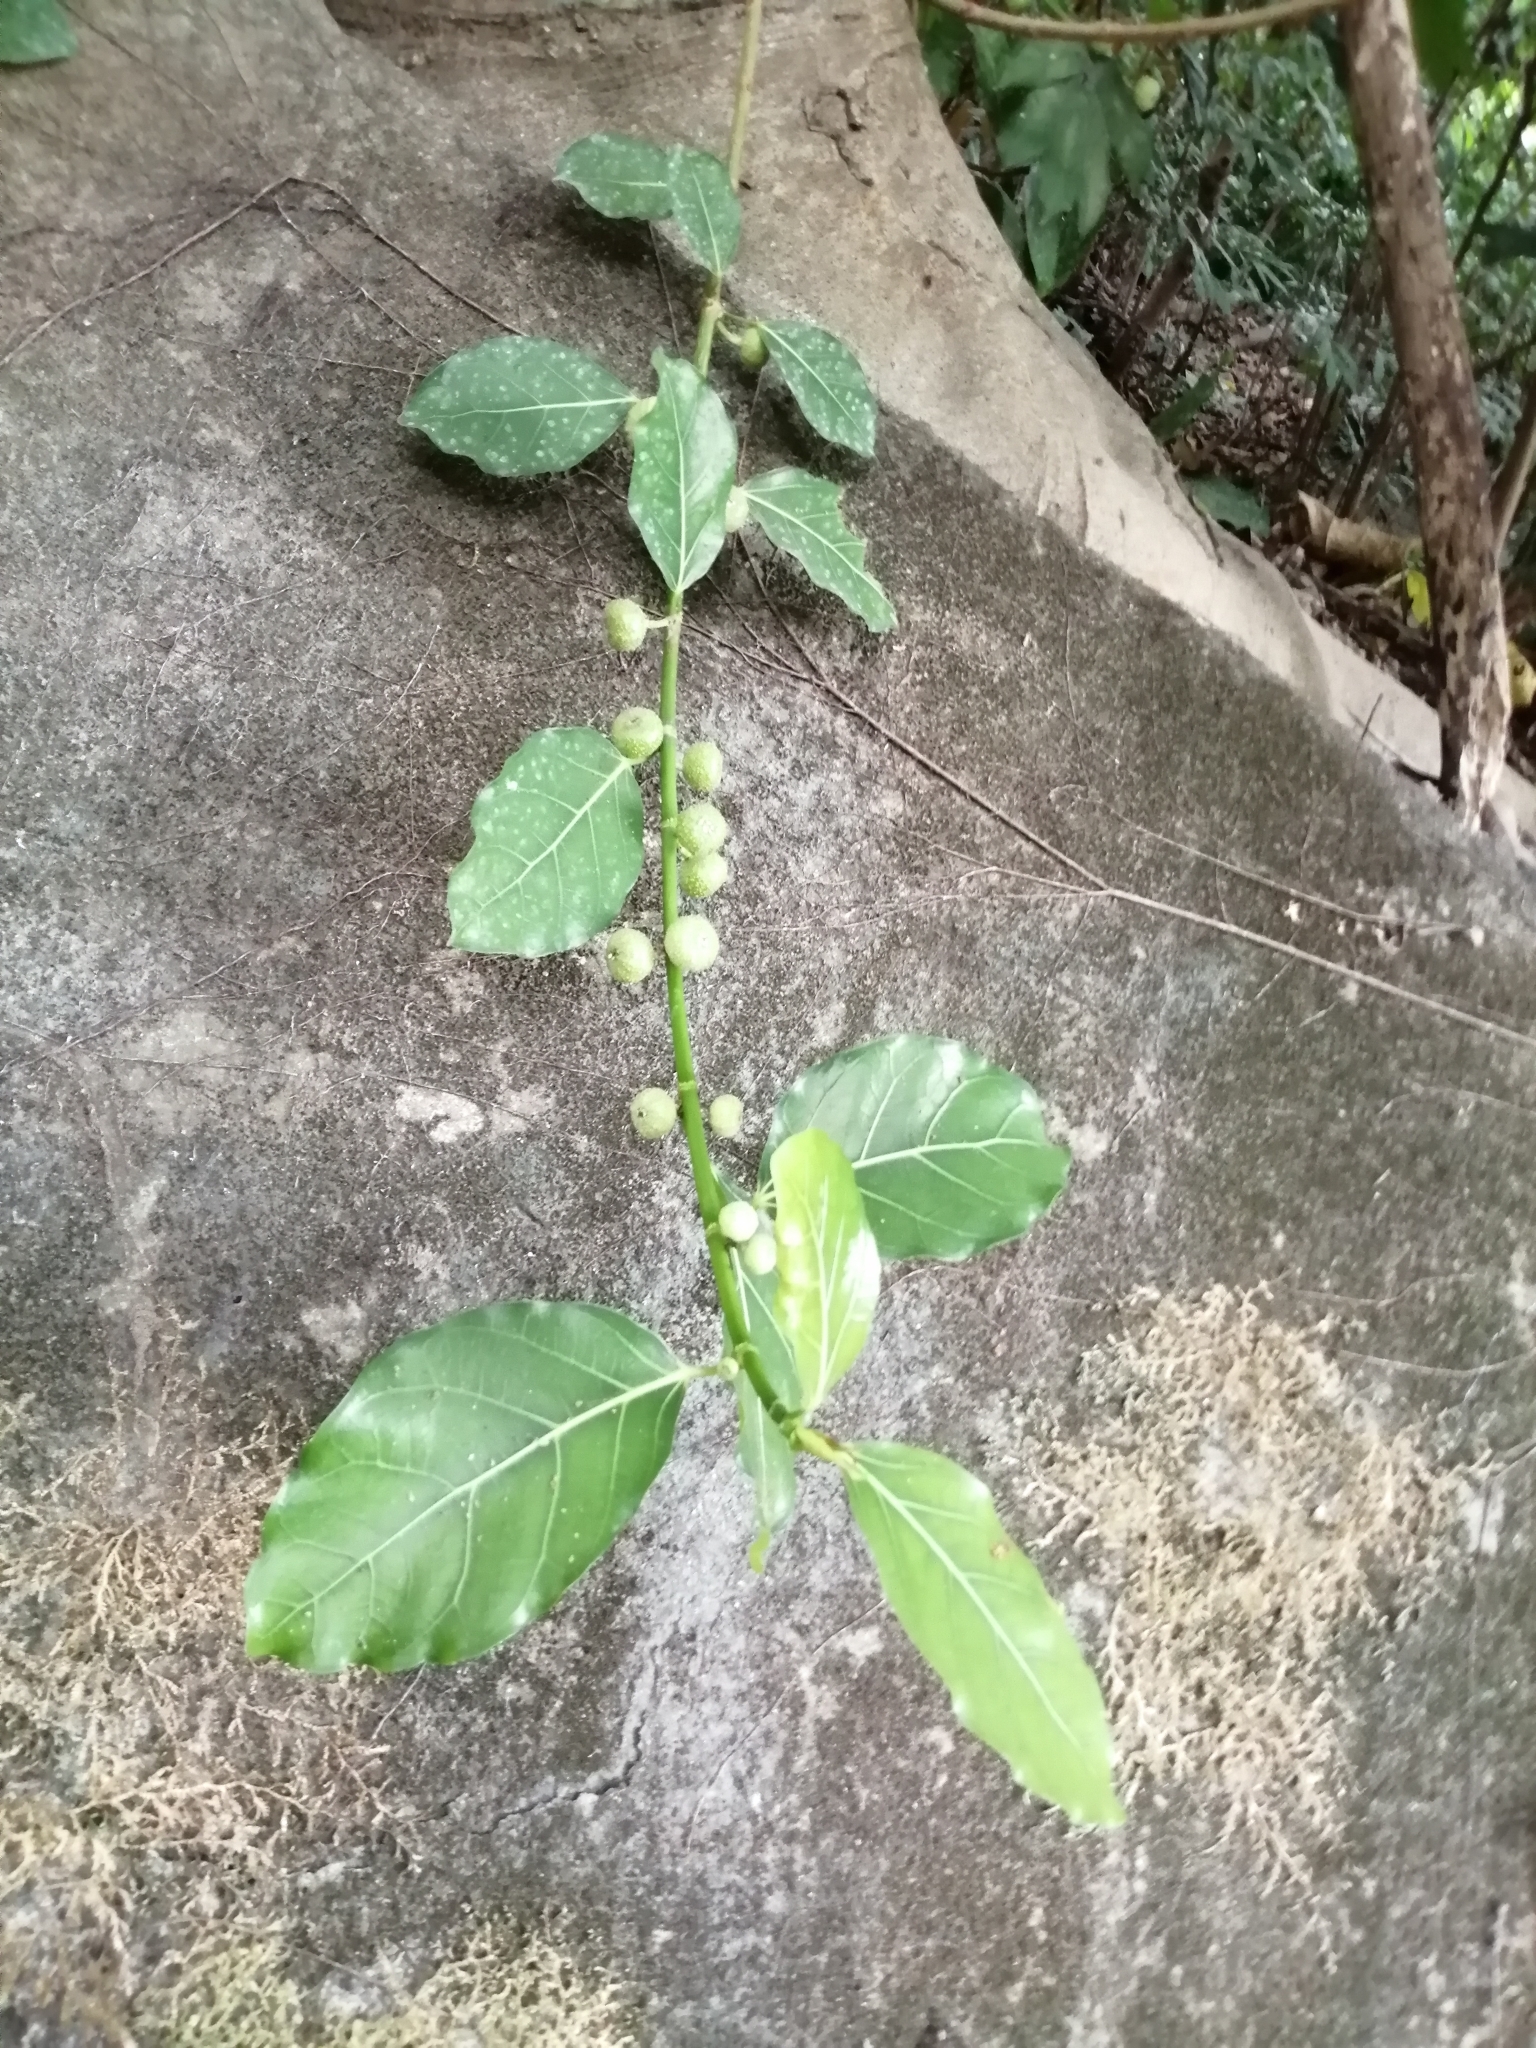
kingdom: Plantae
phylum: Tracheophyta
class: Magnoliopsida
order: Rosales
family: Moraceae
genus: Ficus
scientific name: Ficus septica
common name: Septic fig
